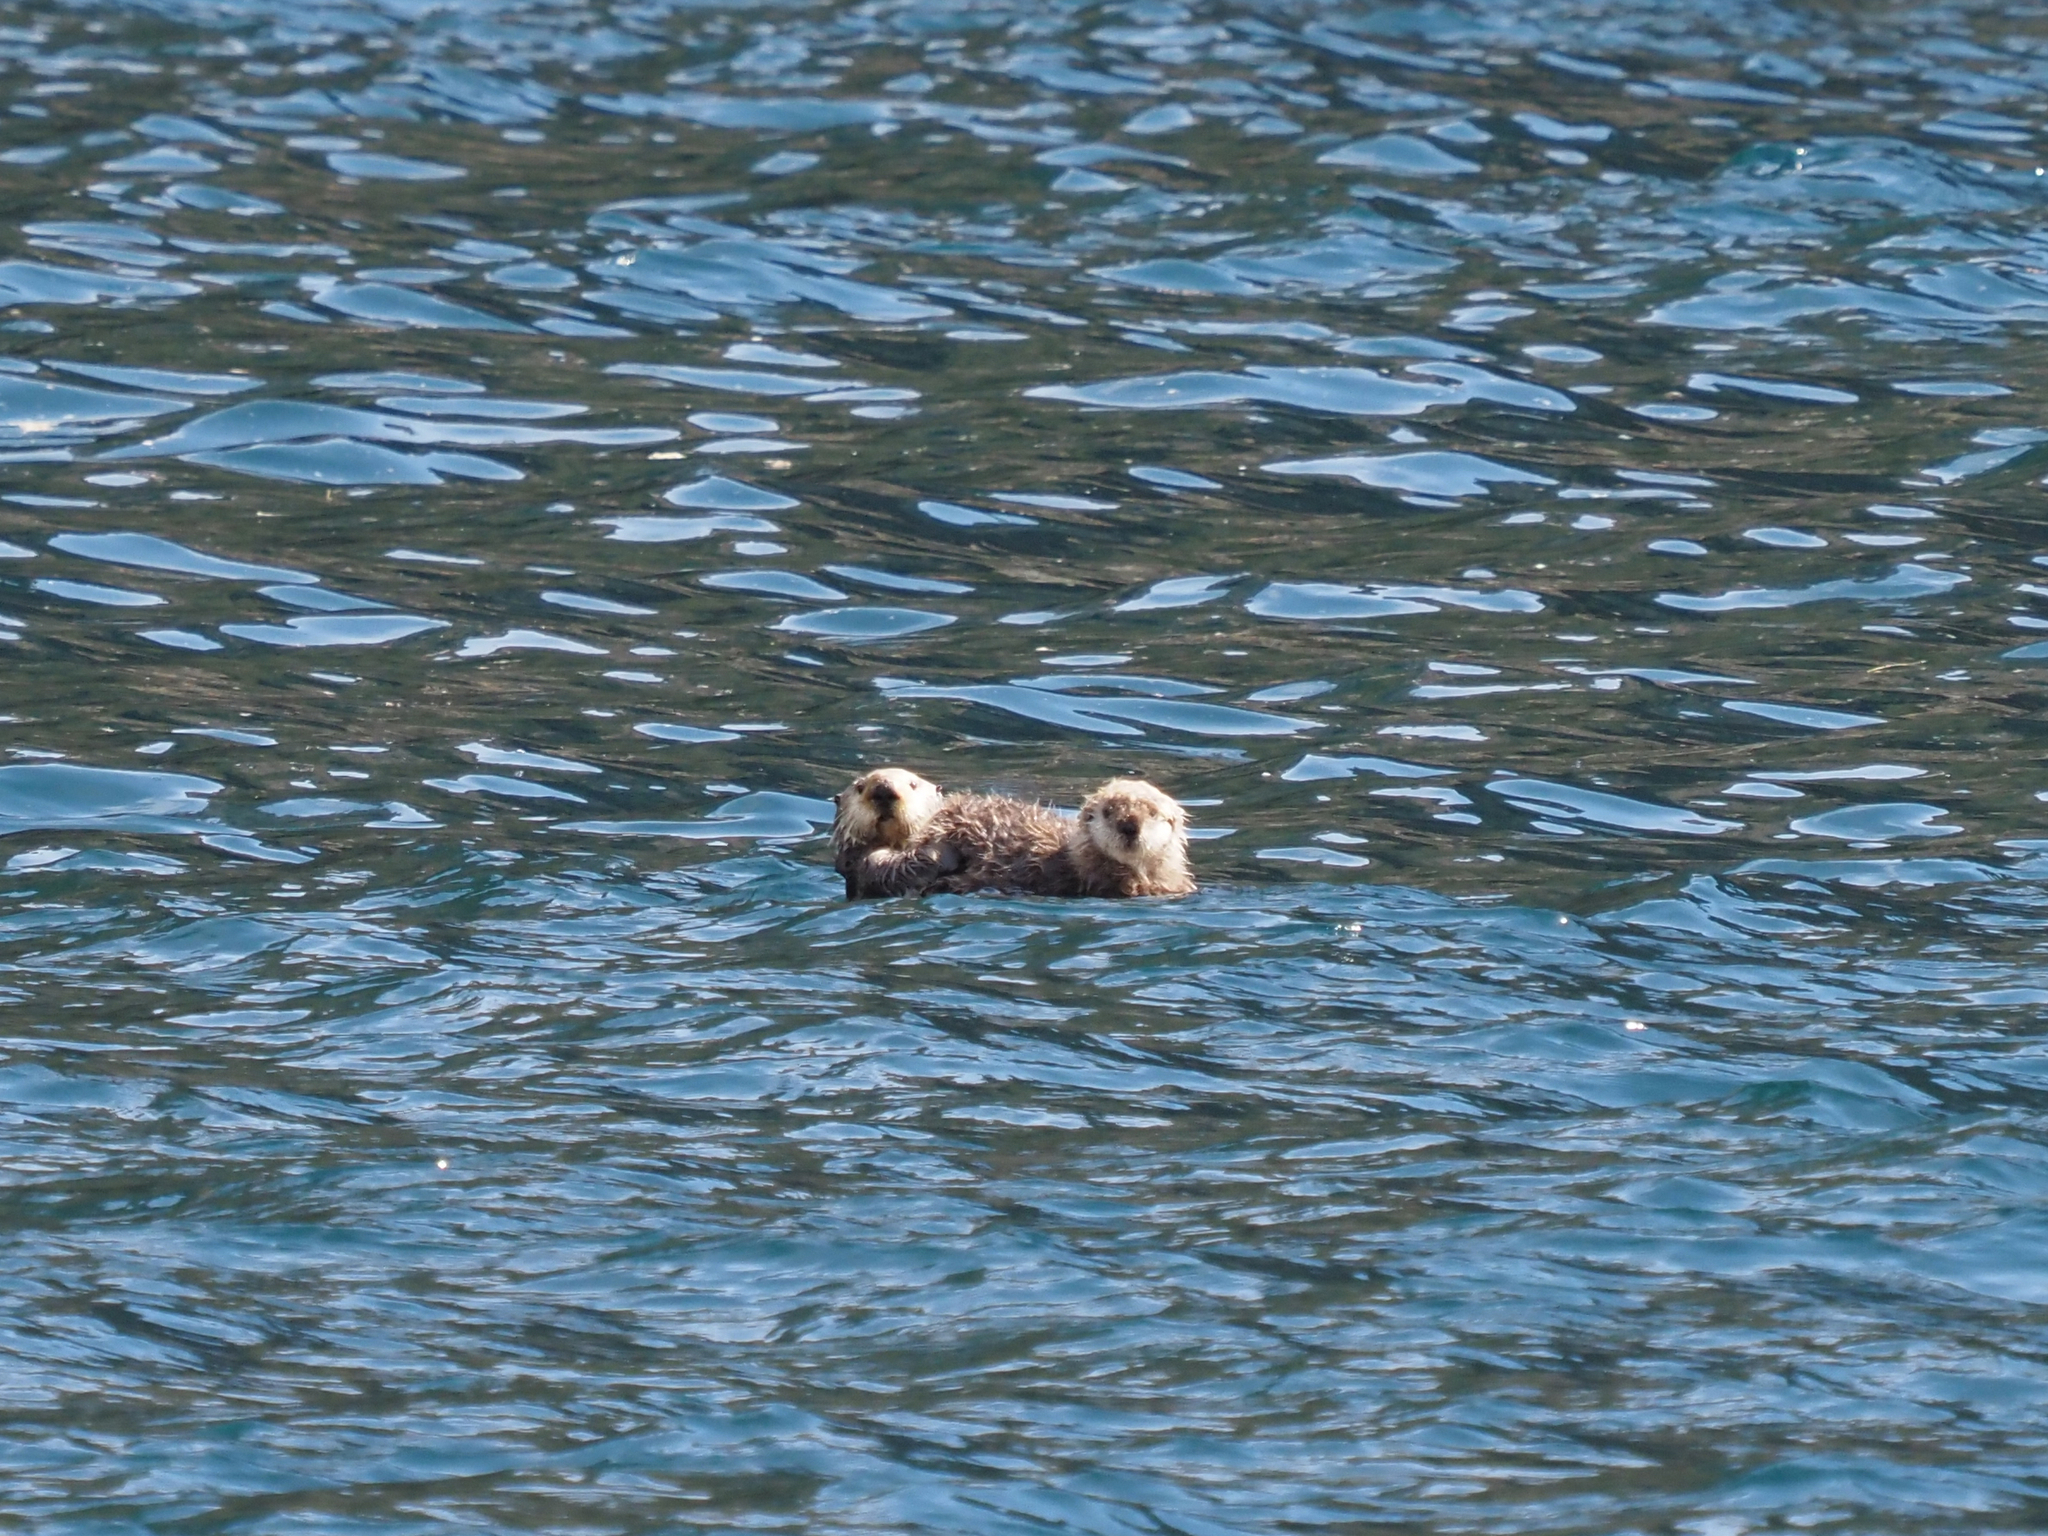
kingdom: Animalia
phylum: Chordata
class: Mammalia
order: Carnivora
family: Mustelidae
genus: Enhydra
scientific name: Enhydra lutris
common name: Sea otter
